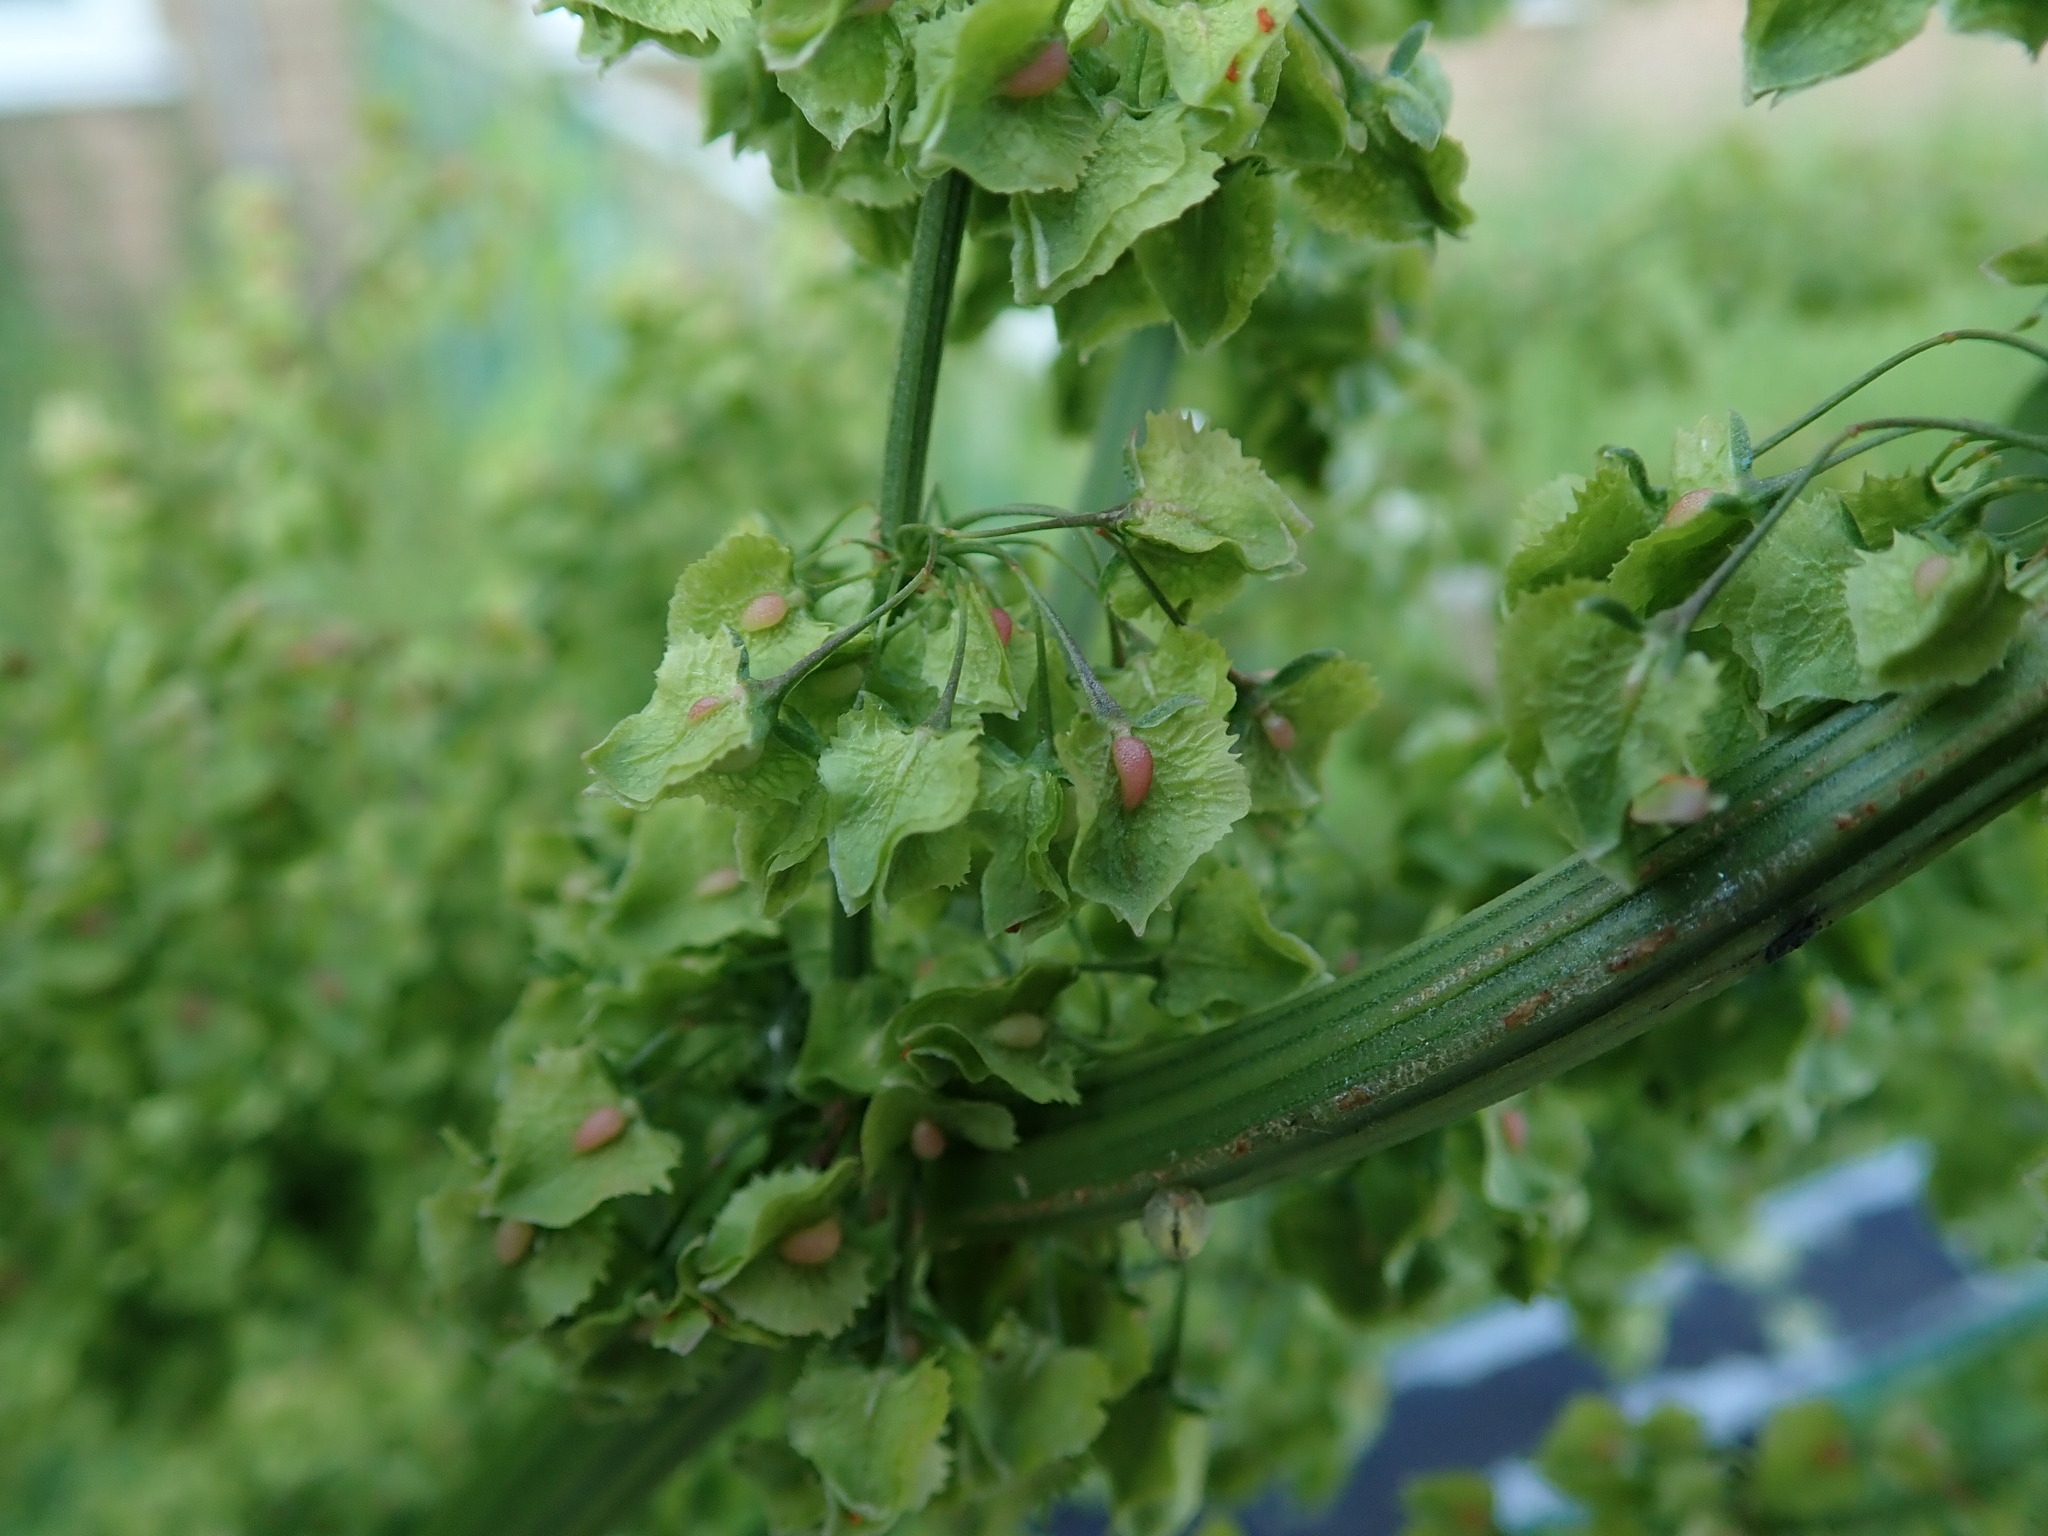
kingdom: Plantae
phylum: Tracheophyta
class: Magnoliopsida
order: Caryophyllales
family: Polygonaceae
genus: Rumex
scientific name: Rumex cristatus
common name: Greek dock
